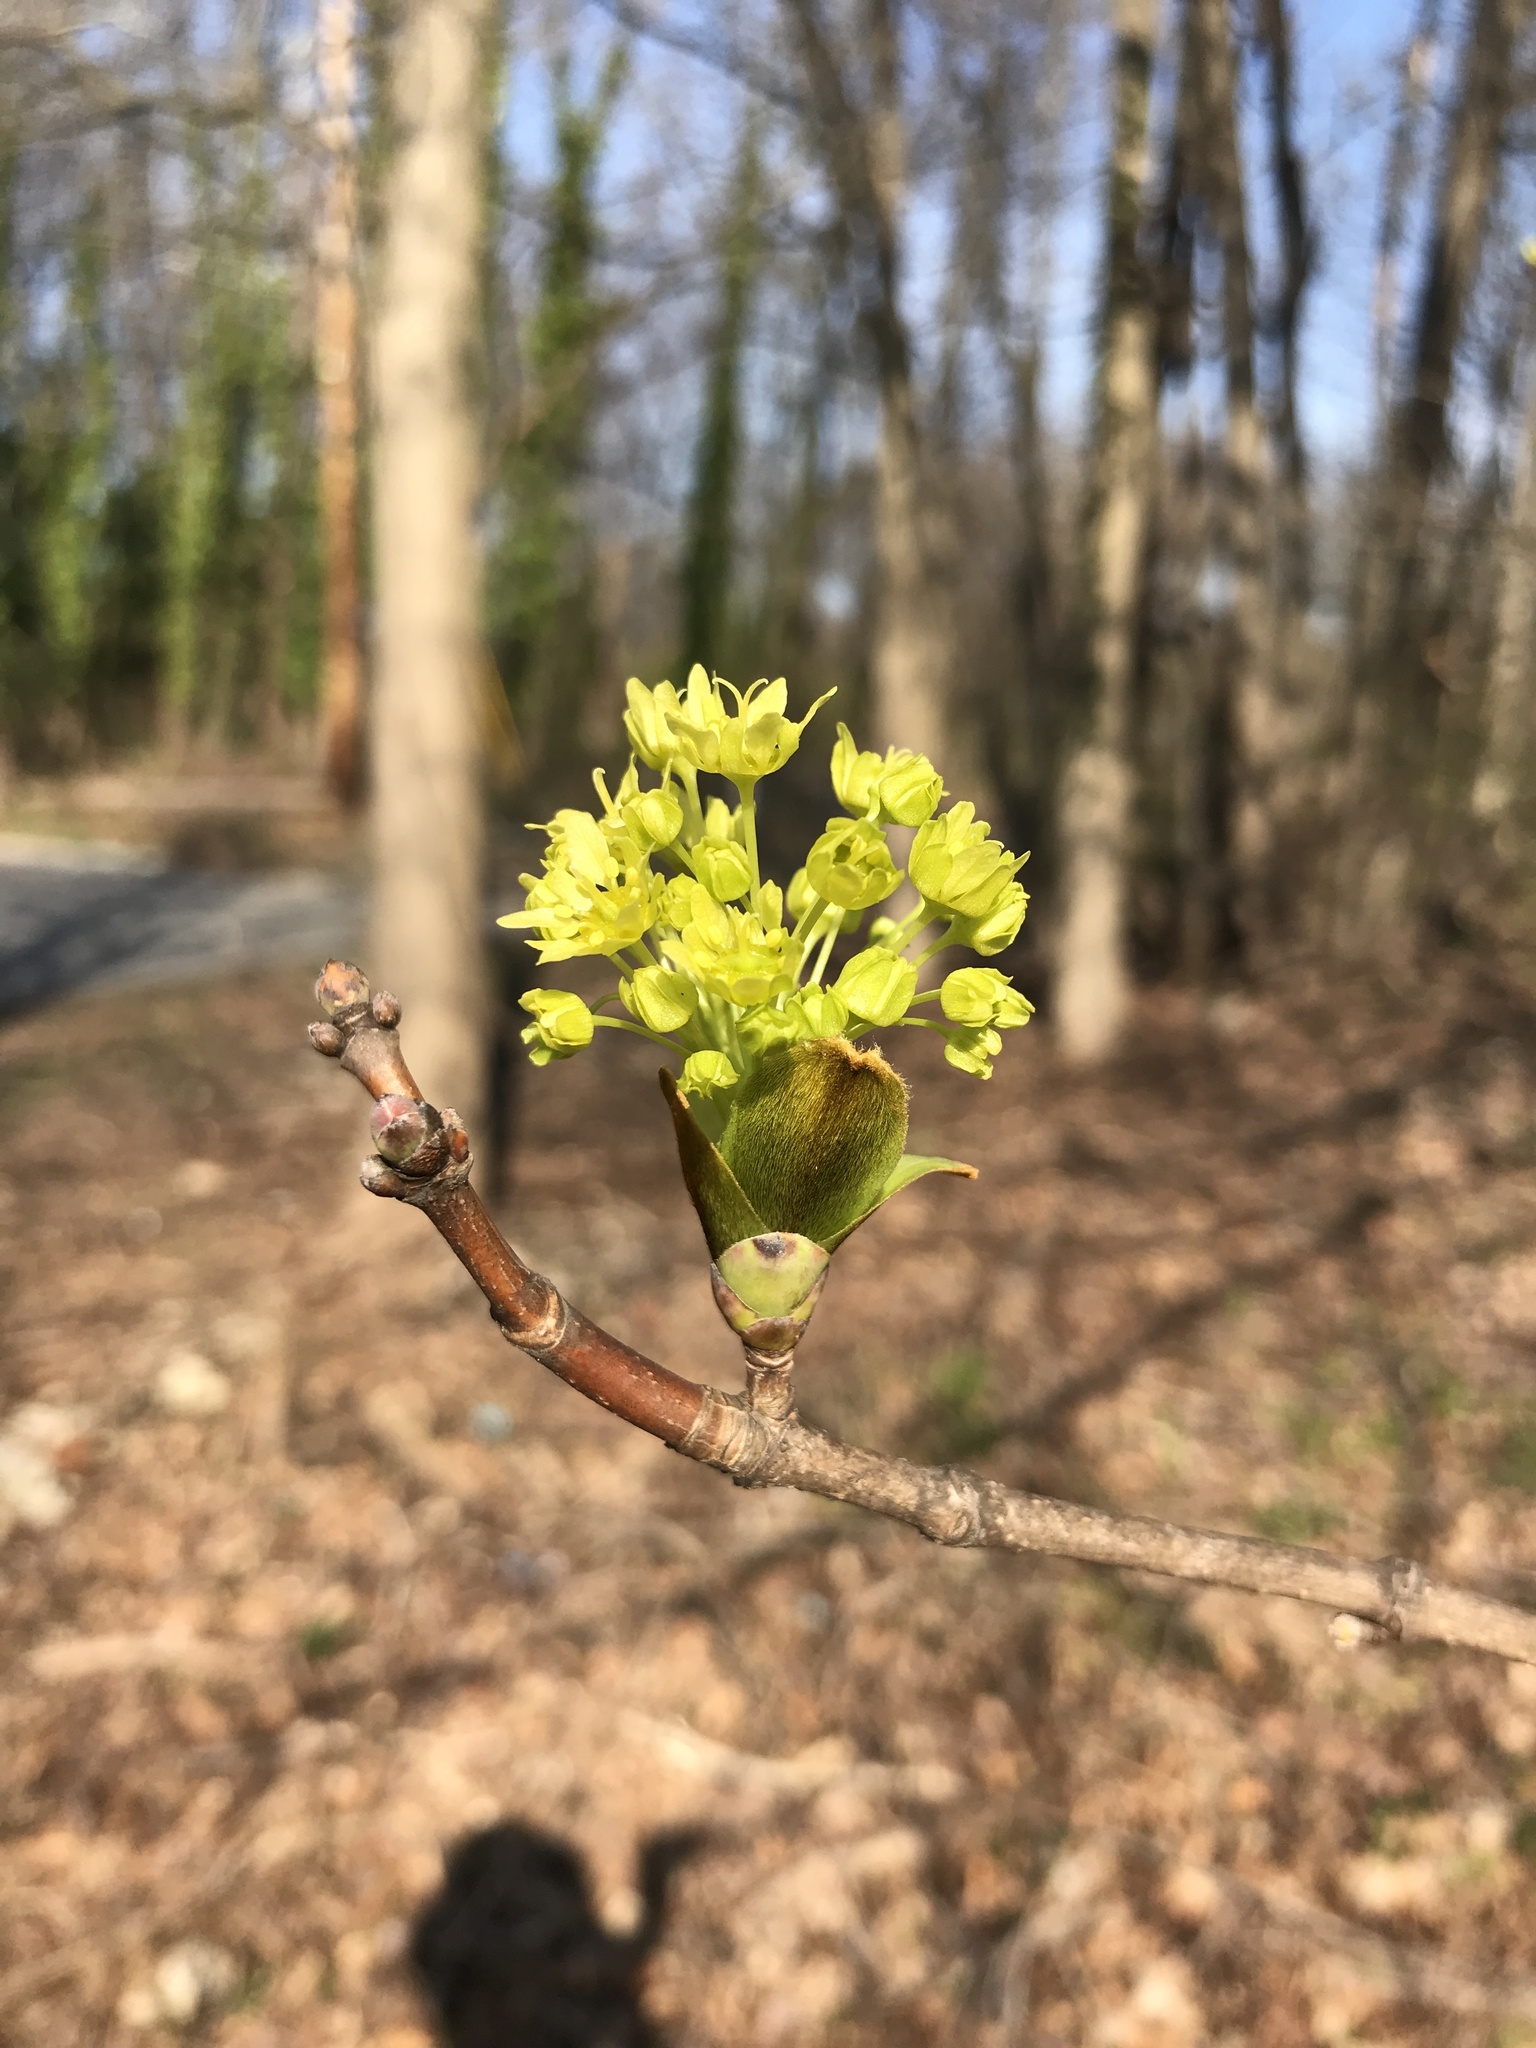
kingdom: Plantae
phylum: Tracheophyta
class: Magnoliopsida
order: Sapindales
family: Sapindaceae
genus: Acer
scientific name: Acer platanoides
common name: Norway maple
